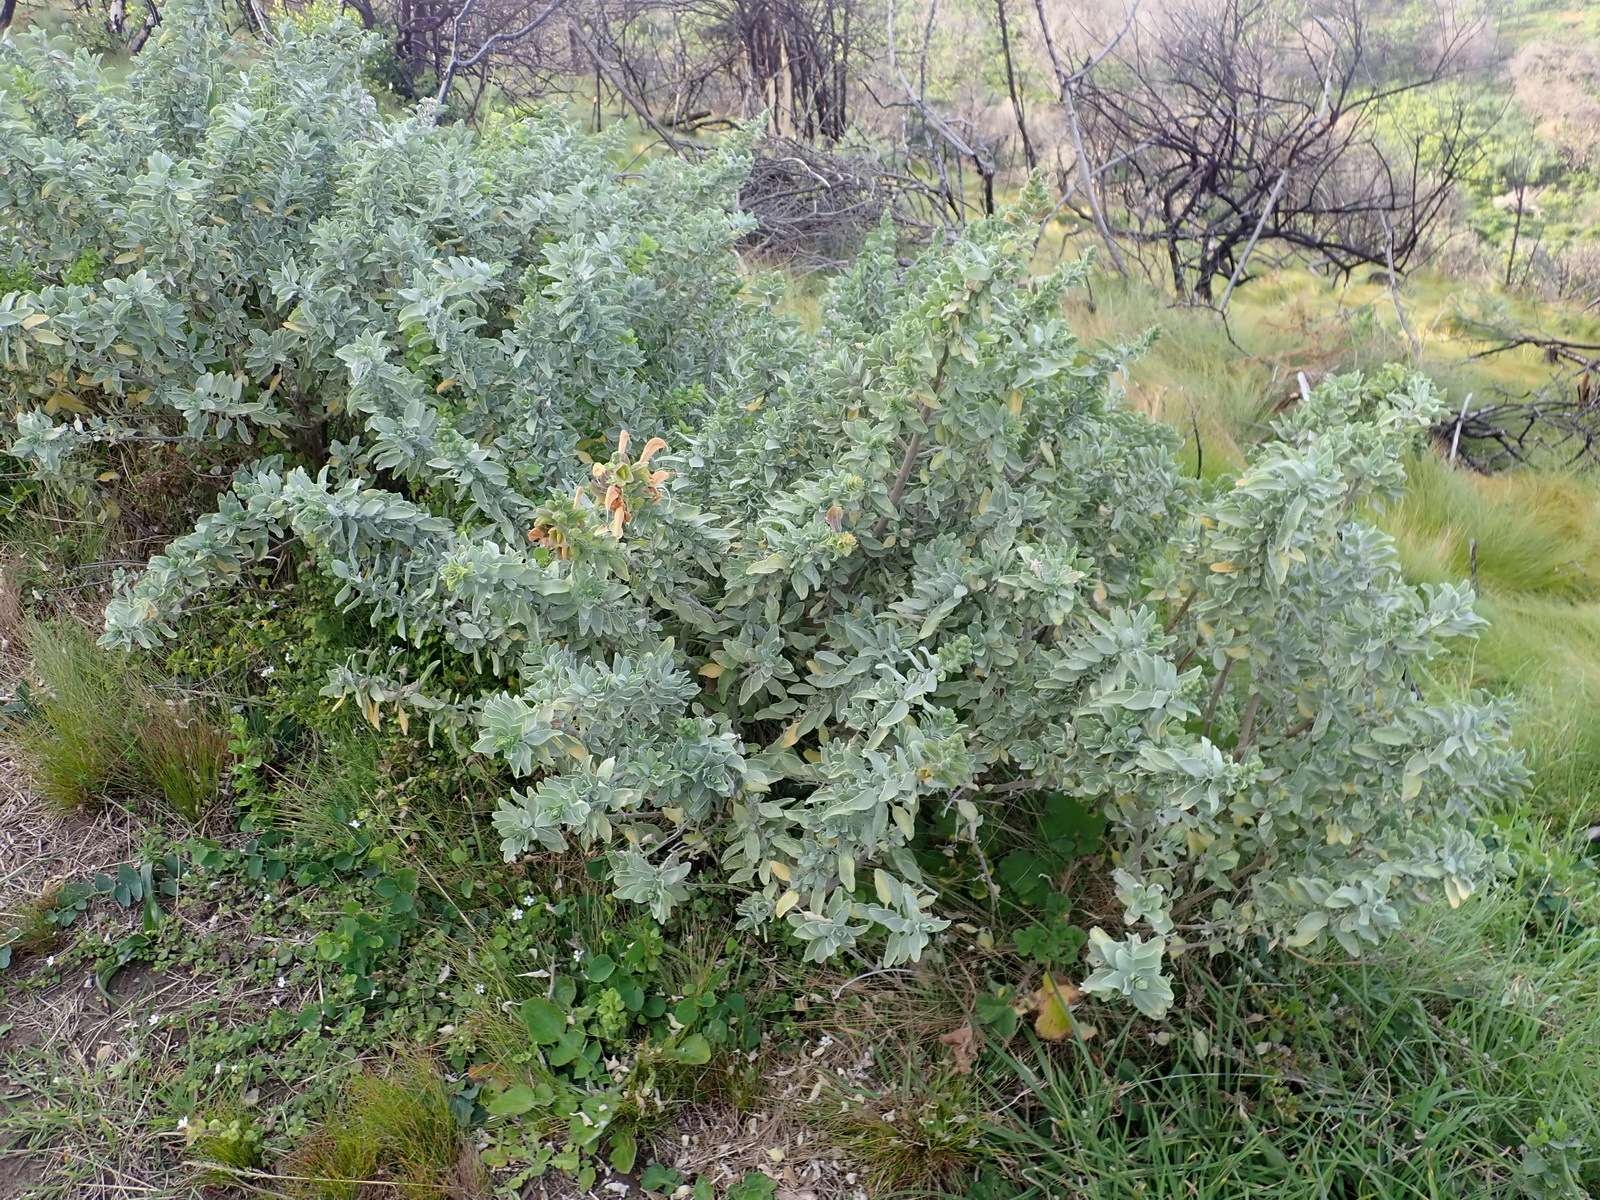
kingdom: Plantae
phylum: Tracheophyta
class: Magnoliopsida
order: Lamiales
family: Lamiaceae
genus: Salvia
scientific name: Salvia aurea
